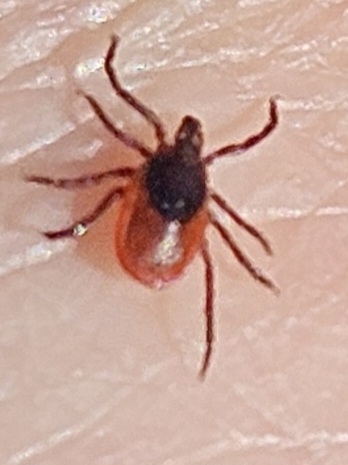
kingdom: Animalia
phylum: Arthropoda
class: Arachnida
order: Ixodida
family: Ixodidae
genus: Ixodes
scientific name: Ixodes scapularis
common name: Black legged tick
